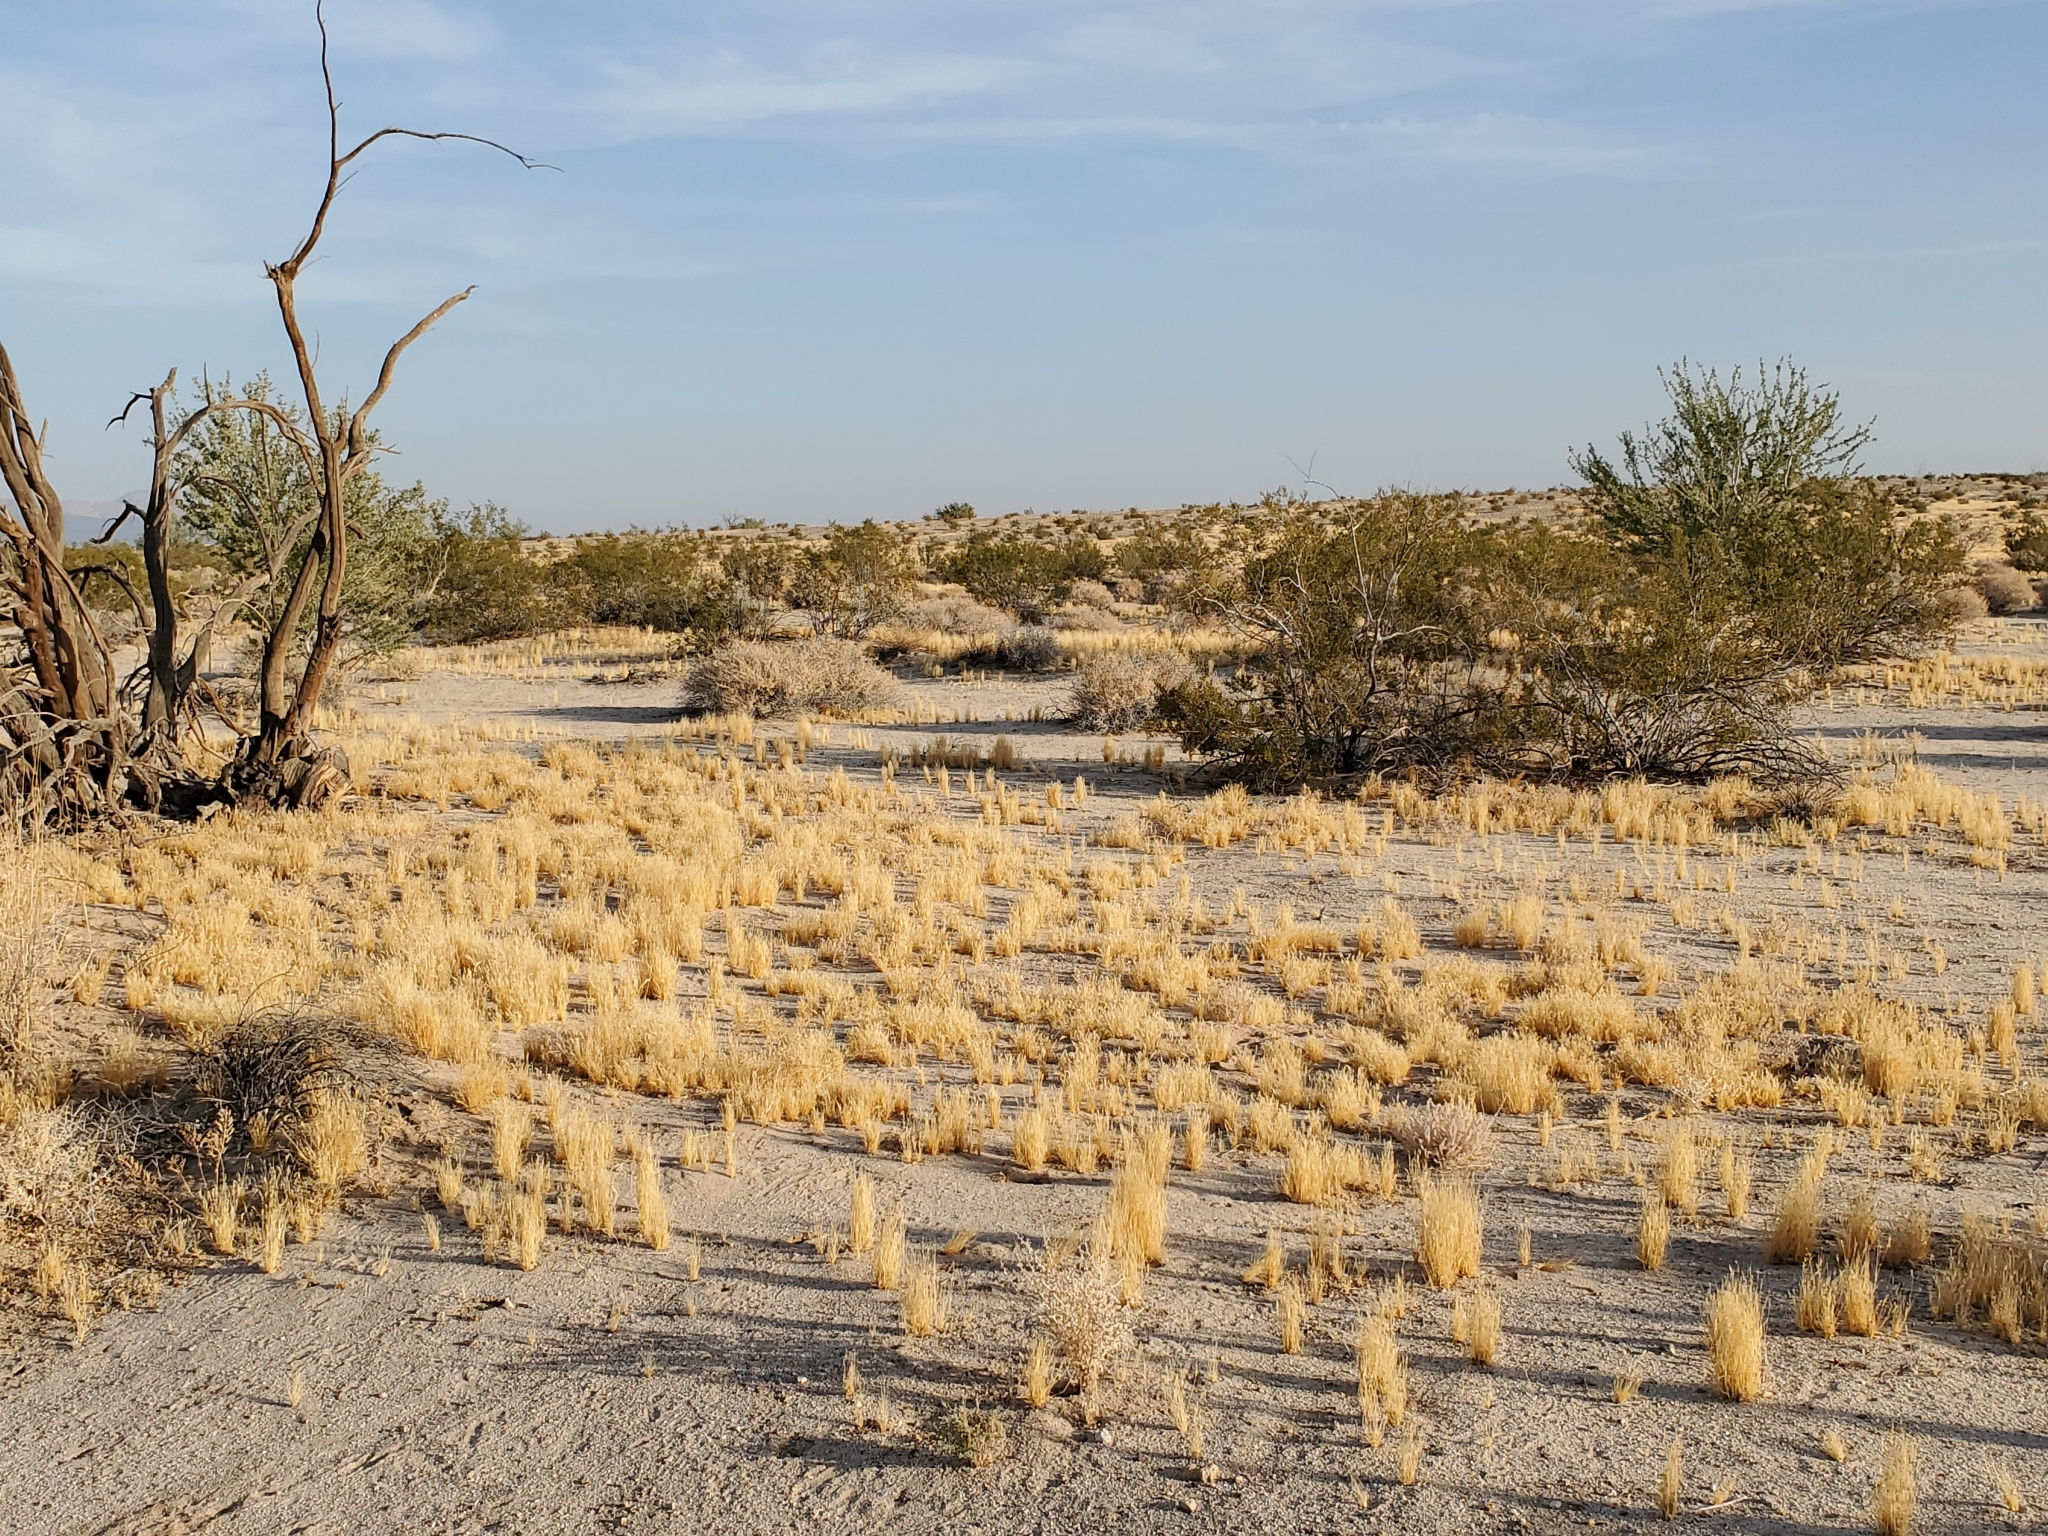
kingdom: Plantae
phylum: Tracheophyta
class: Liliopsida
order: Poales
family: Poaceae
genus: Schismus
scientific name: Schismus barbatus
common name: Kelch-grass
